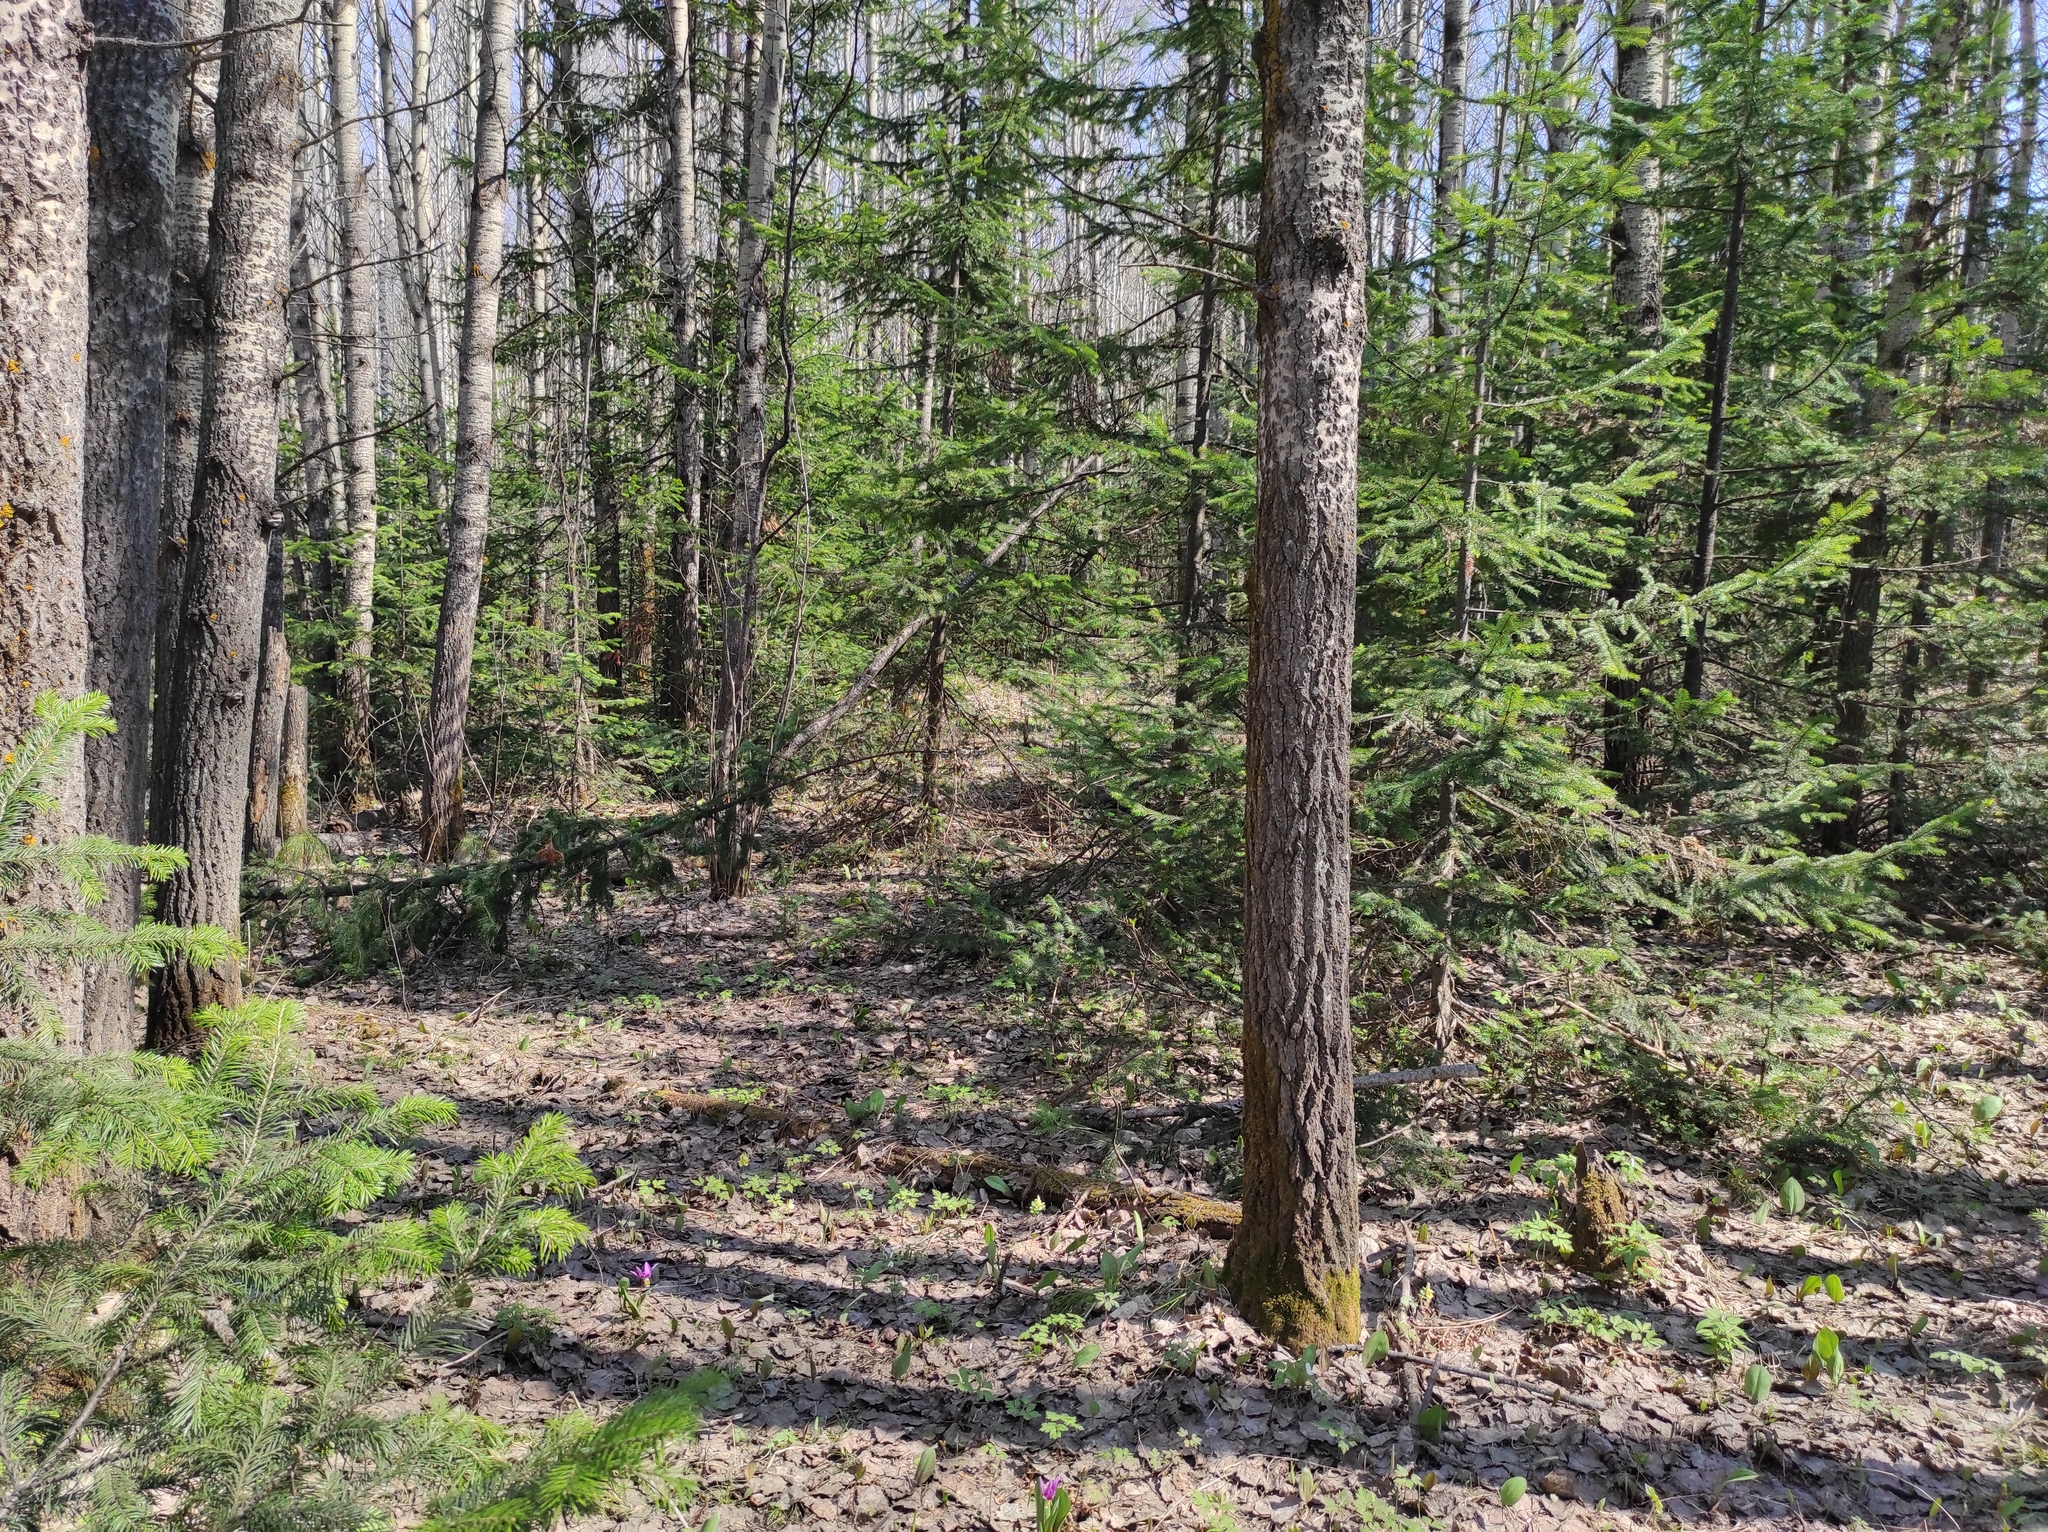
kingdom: Plantae
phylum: Tracheophyta
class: Pinopsida
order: Pinales
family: Pinaceae
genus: Abies
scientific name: Abies sibirica
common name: Siberian fir
